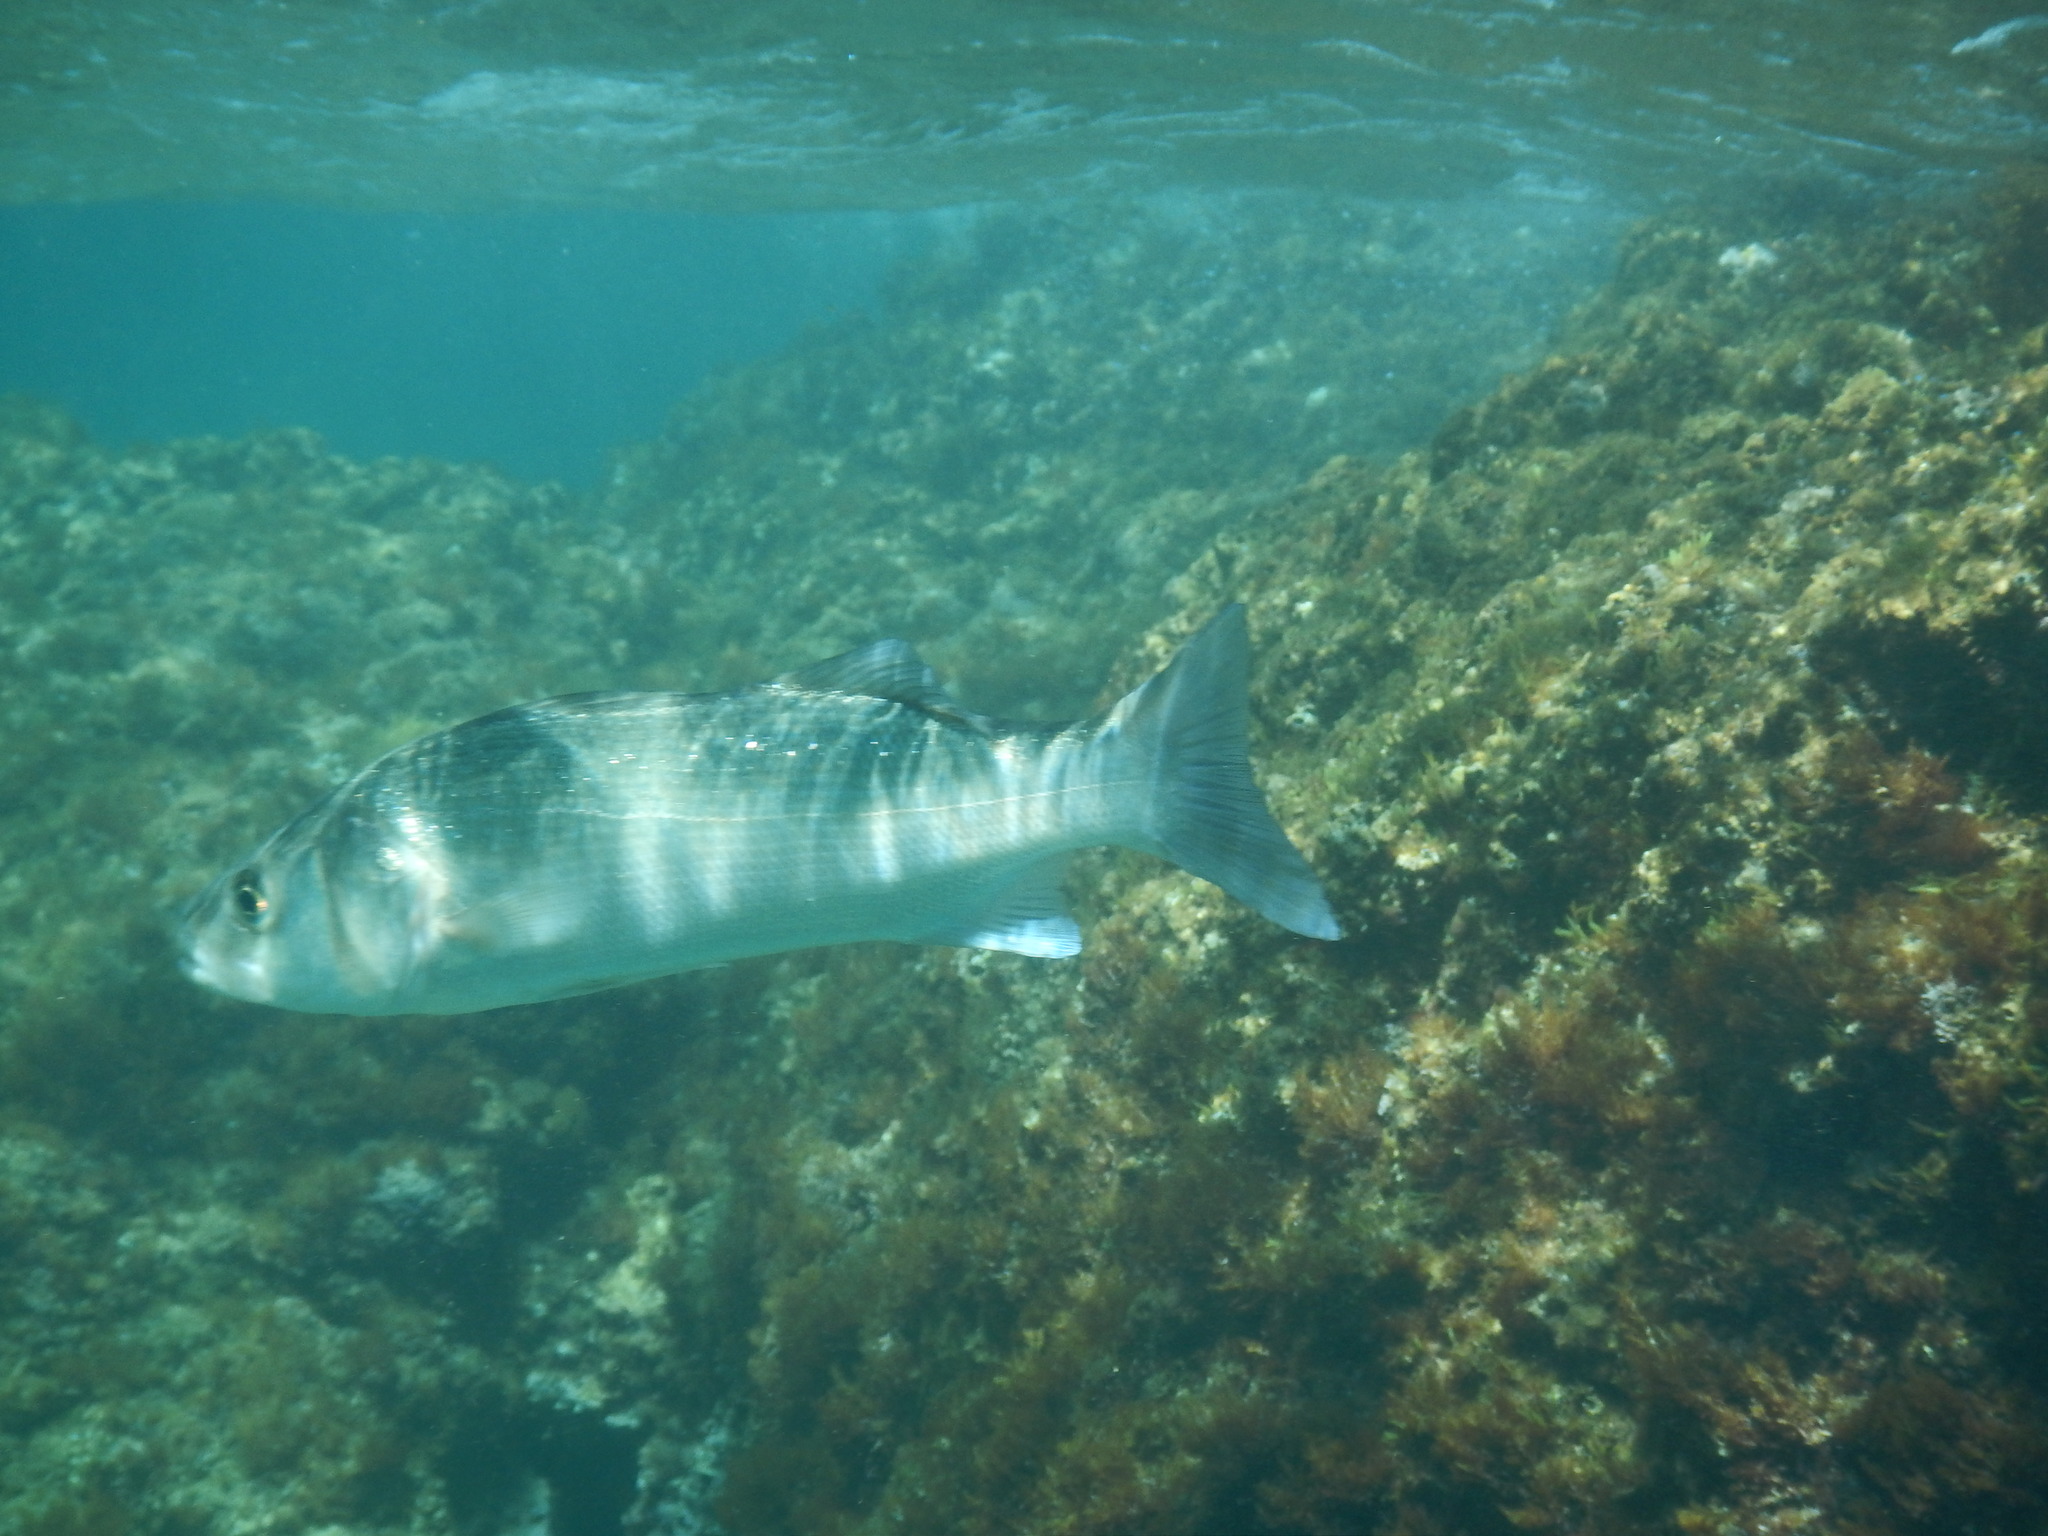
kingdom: Animalia
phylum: Chordata
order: Perciformes
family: Moronidae
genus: Dicentrarchus
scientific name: Dicentrarchus labrax
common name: European seabass
